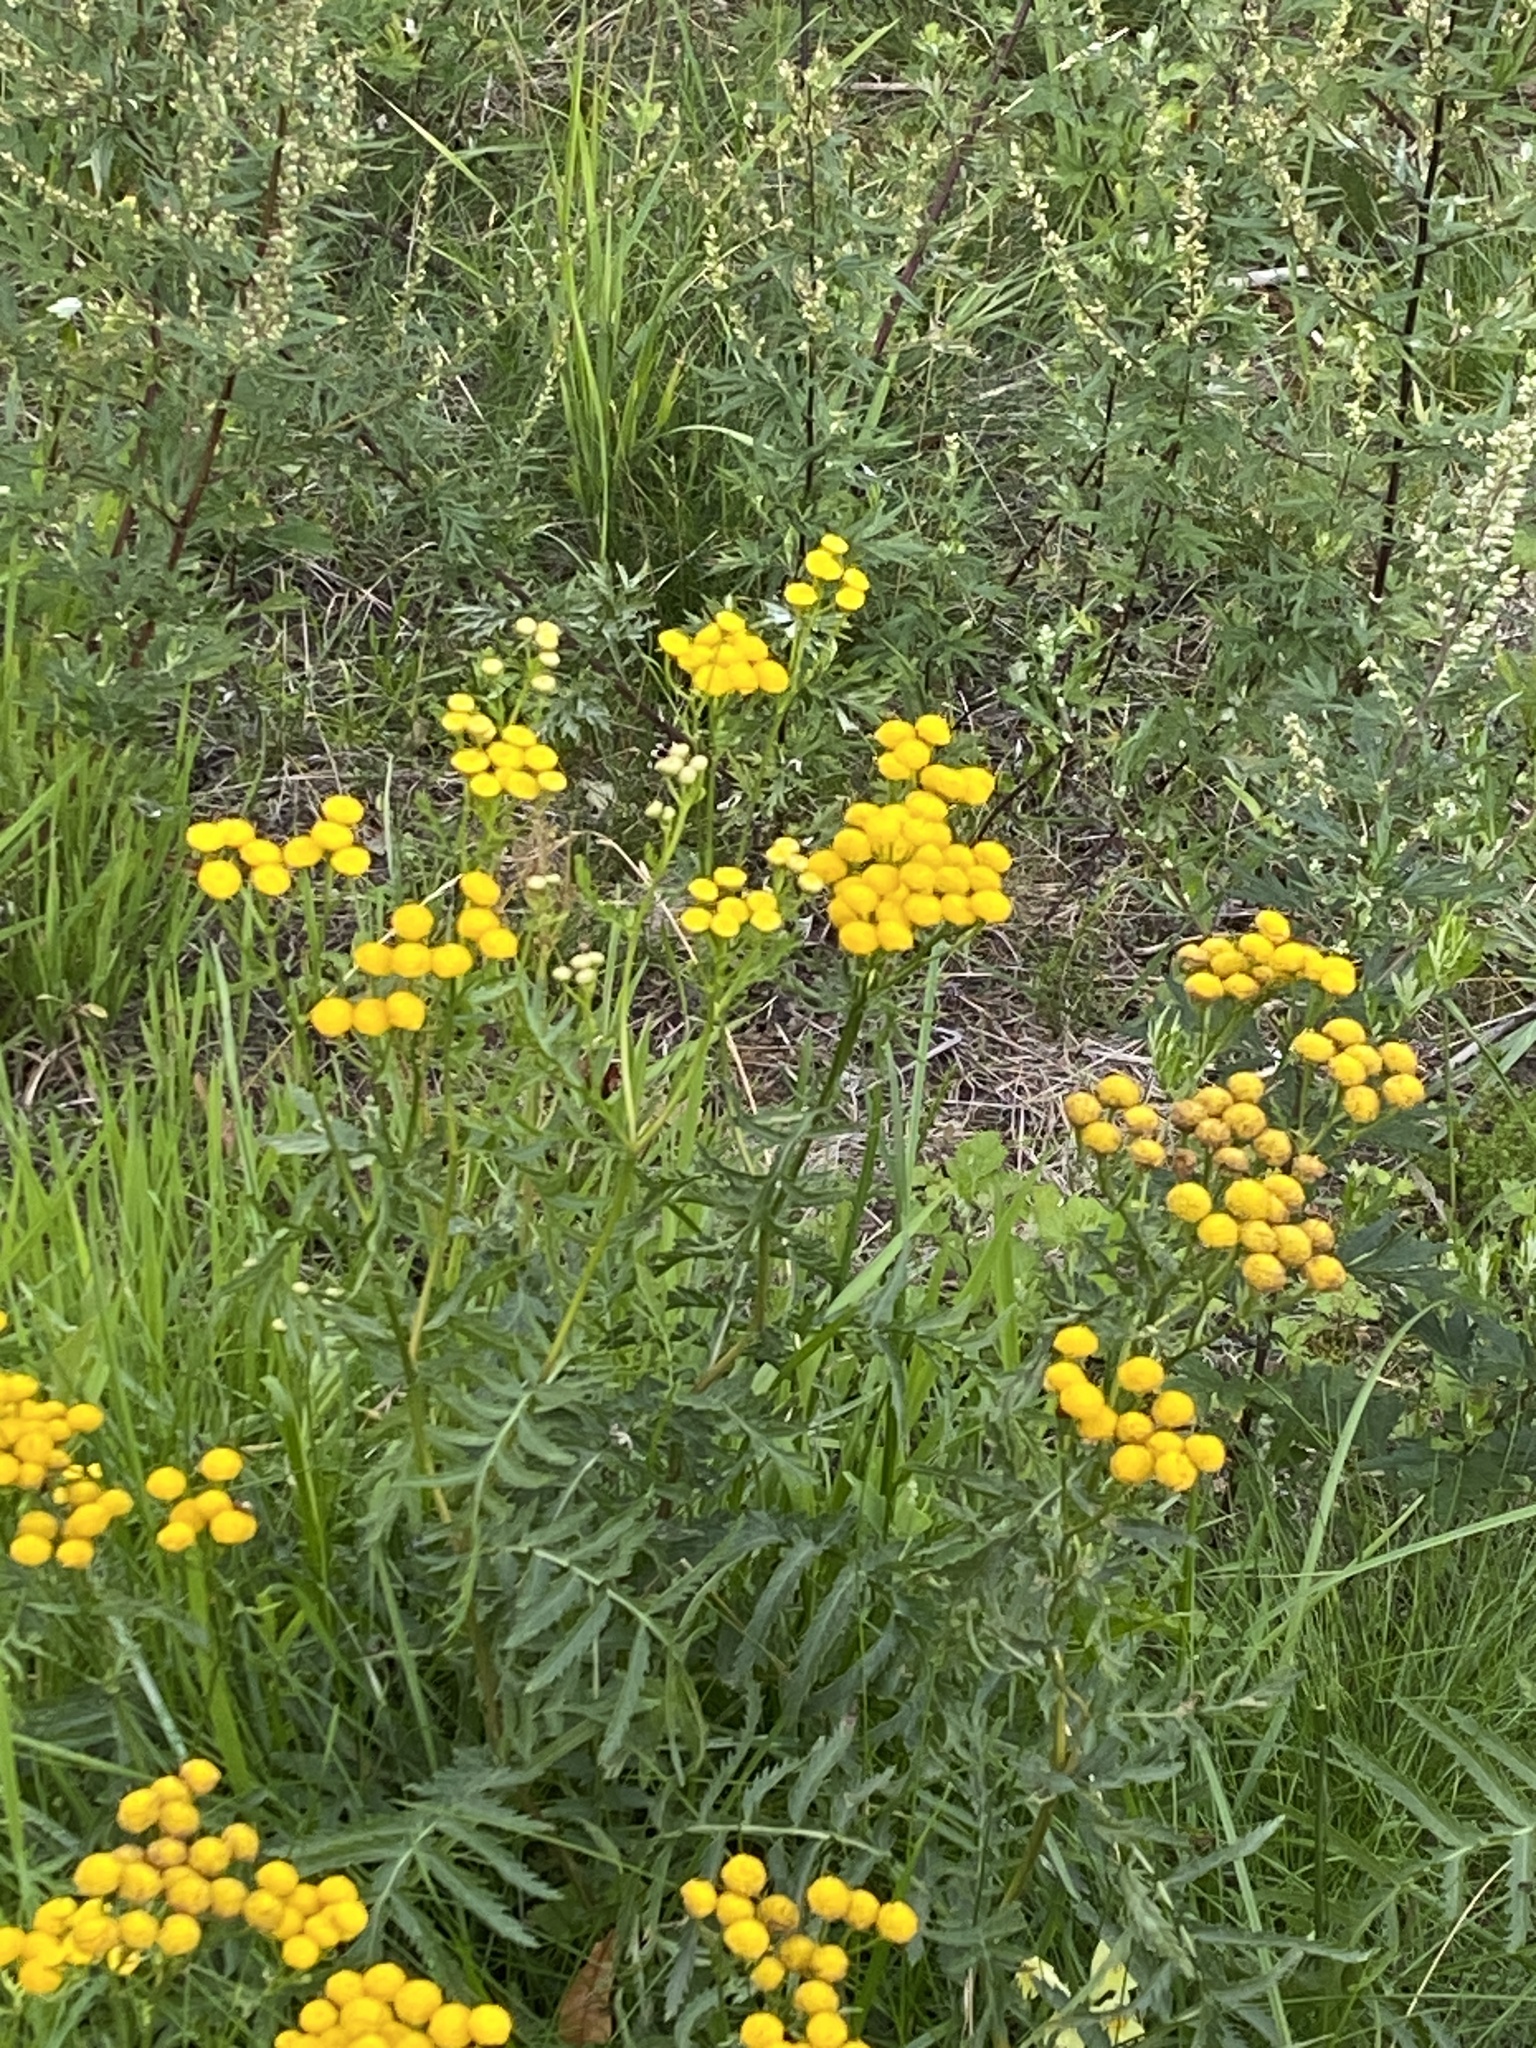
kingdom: Plantae
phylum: Tracheophyta
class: Magnoliopsida
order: Asterales
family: Asteraceae
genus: Tanacetum
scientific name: Tanacetum vulgare
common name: Common tansy
